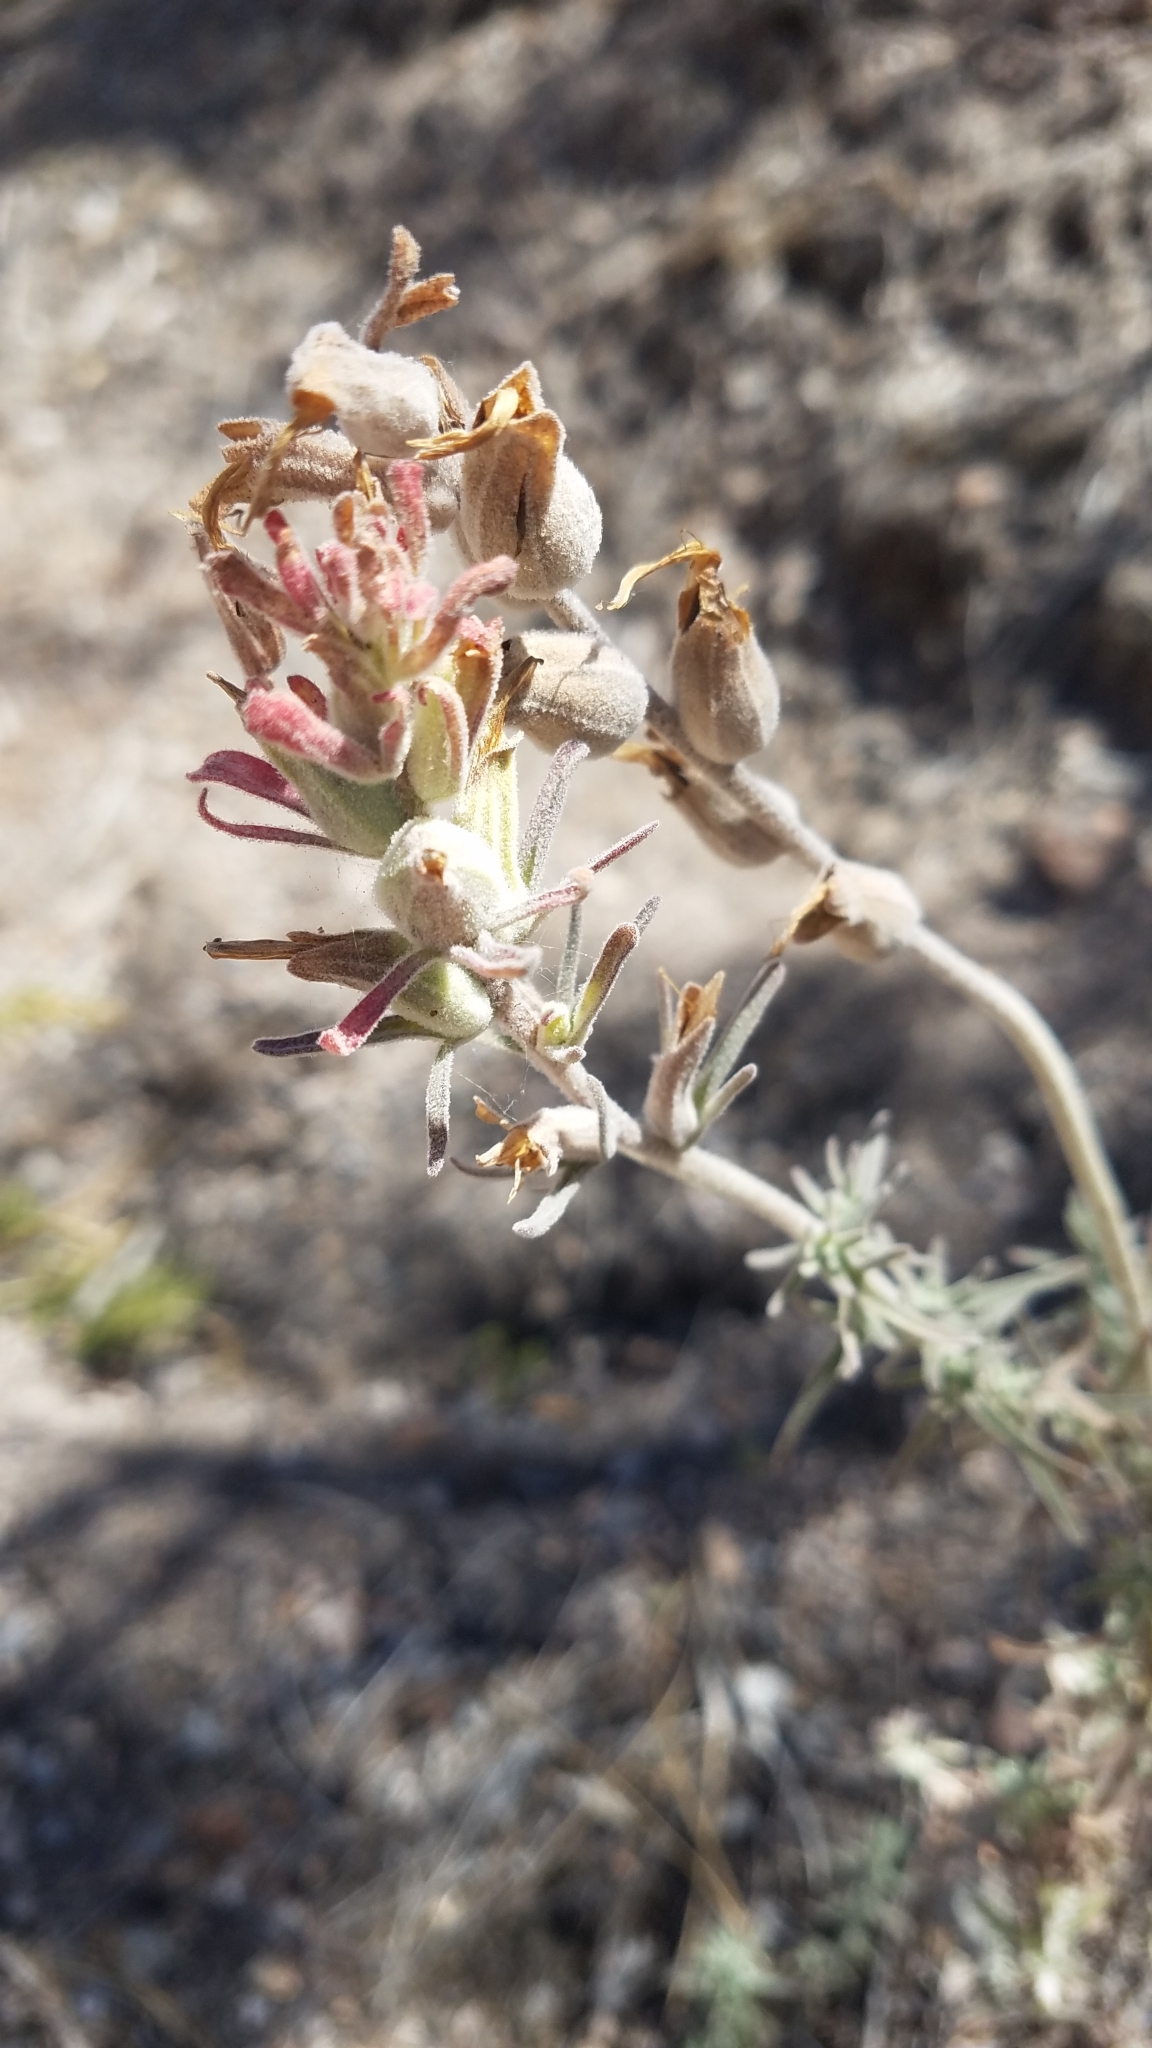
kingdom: Plantae
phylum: Tracheophyta
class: Magnoliopsida
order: Lamiales
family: Orobanchaceae
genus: Castilleja
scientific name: Castilleja foliolosa
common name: Woolly indian paintbrush
